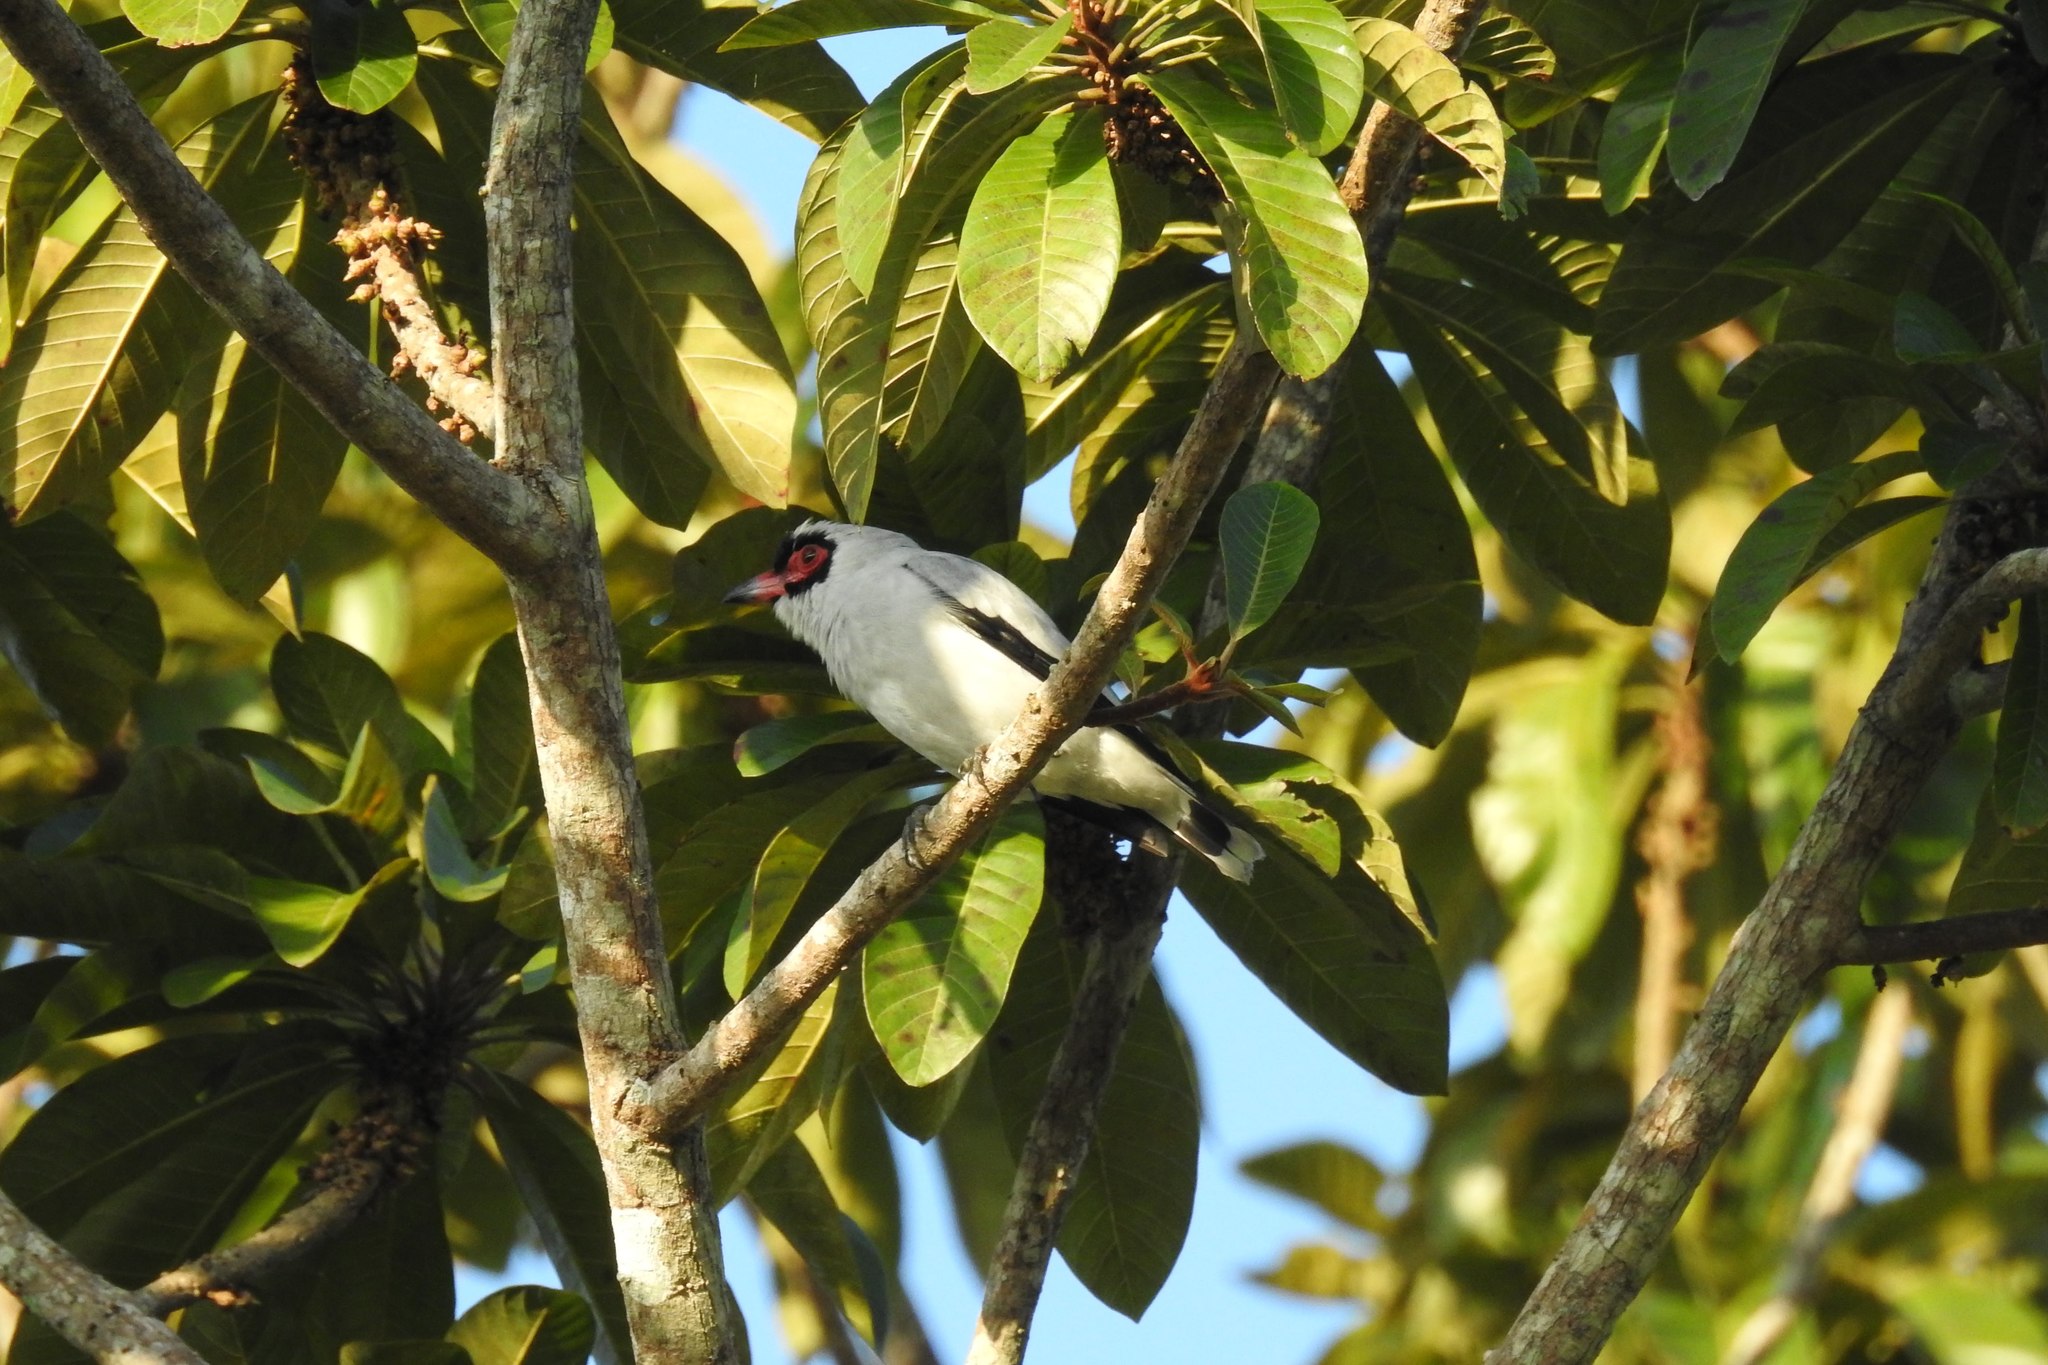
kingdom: Animalia
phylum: Chordata
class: Aves
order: Passeriformes
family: Cotingidae
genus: Tityra
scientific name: Tityra semifasciata
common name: Masked tityra
